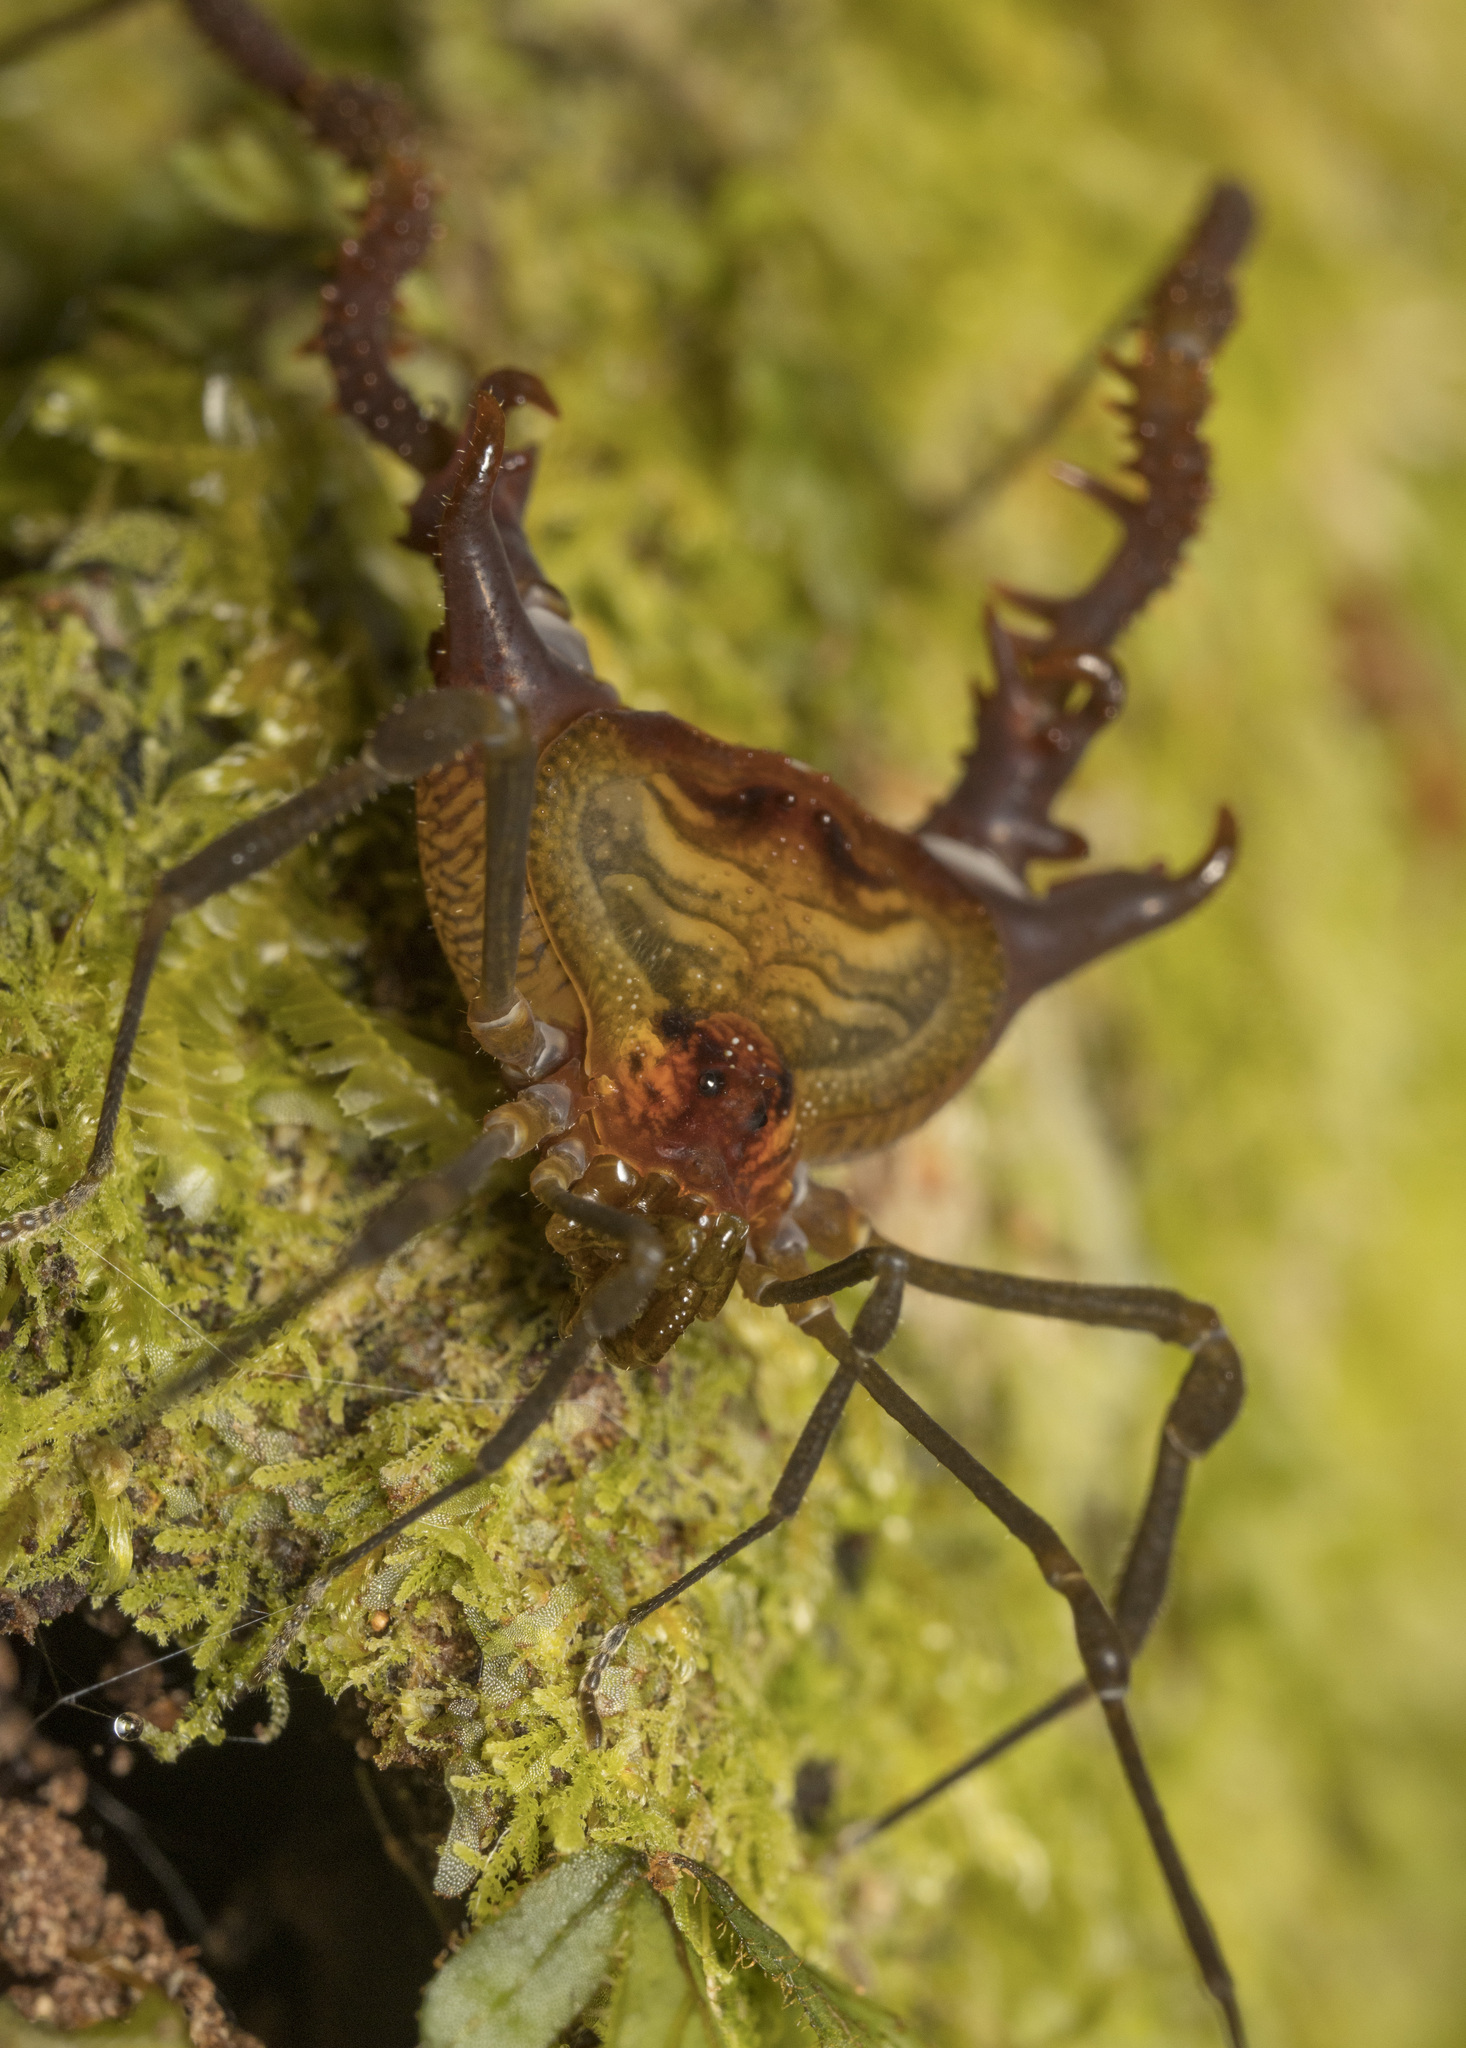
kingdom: Animalia
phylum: Arthropoda
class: Arachnida
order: Opiliones
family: Gonyleptidae
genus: Spinivunus
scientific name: Spinivunus adumbratus
